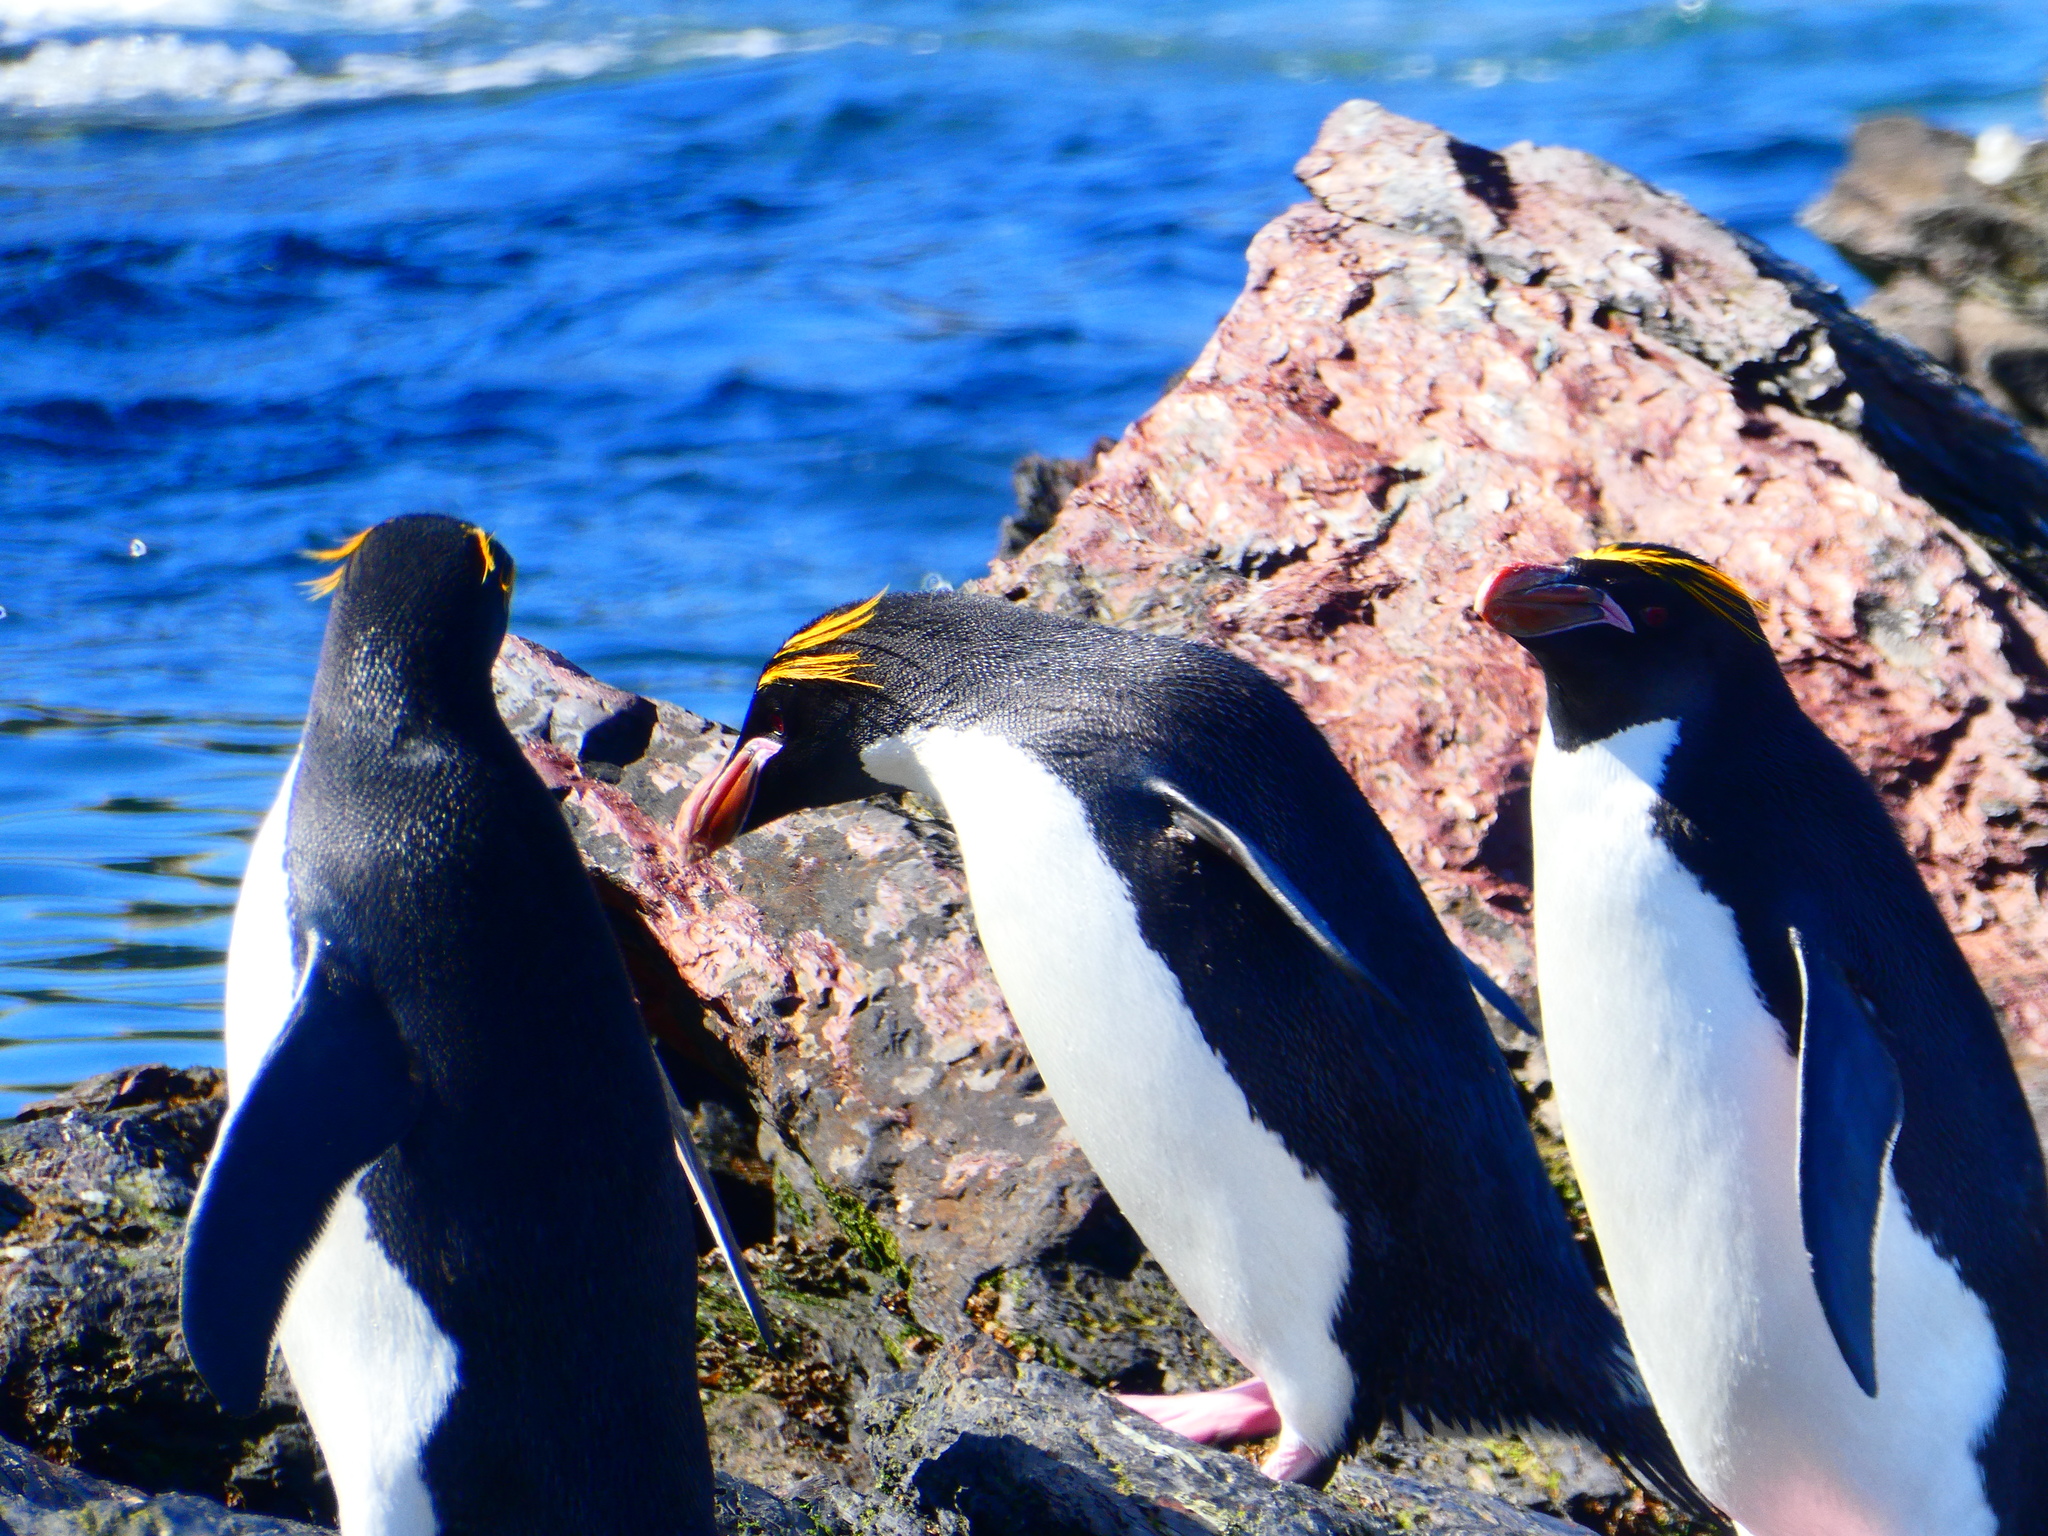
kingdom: Animalia
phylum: Chordata
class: Aves
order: Sphenisciformes
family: Spheniscidae
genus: Eudyptes
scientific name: Eudyptes chrysolophus
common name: Macaroni penguin
